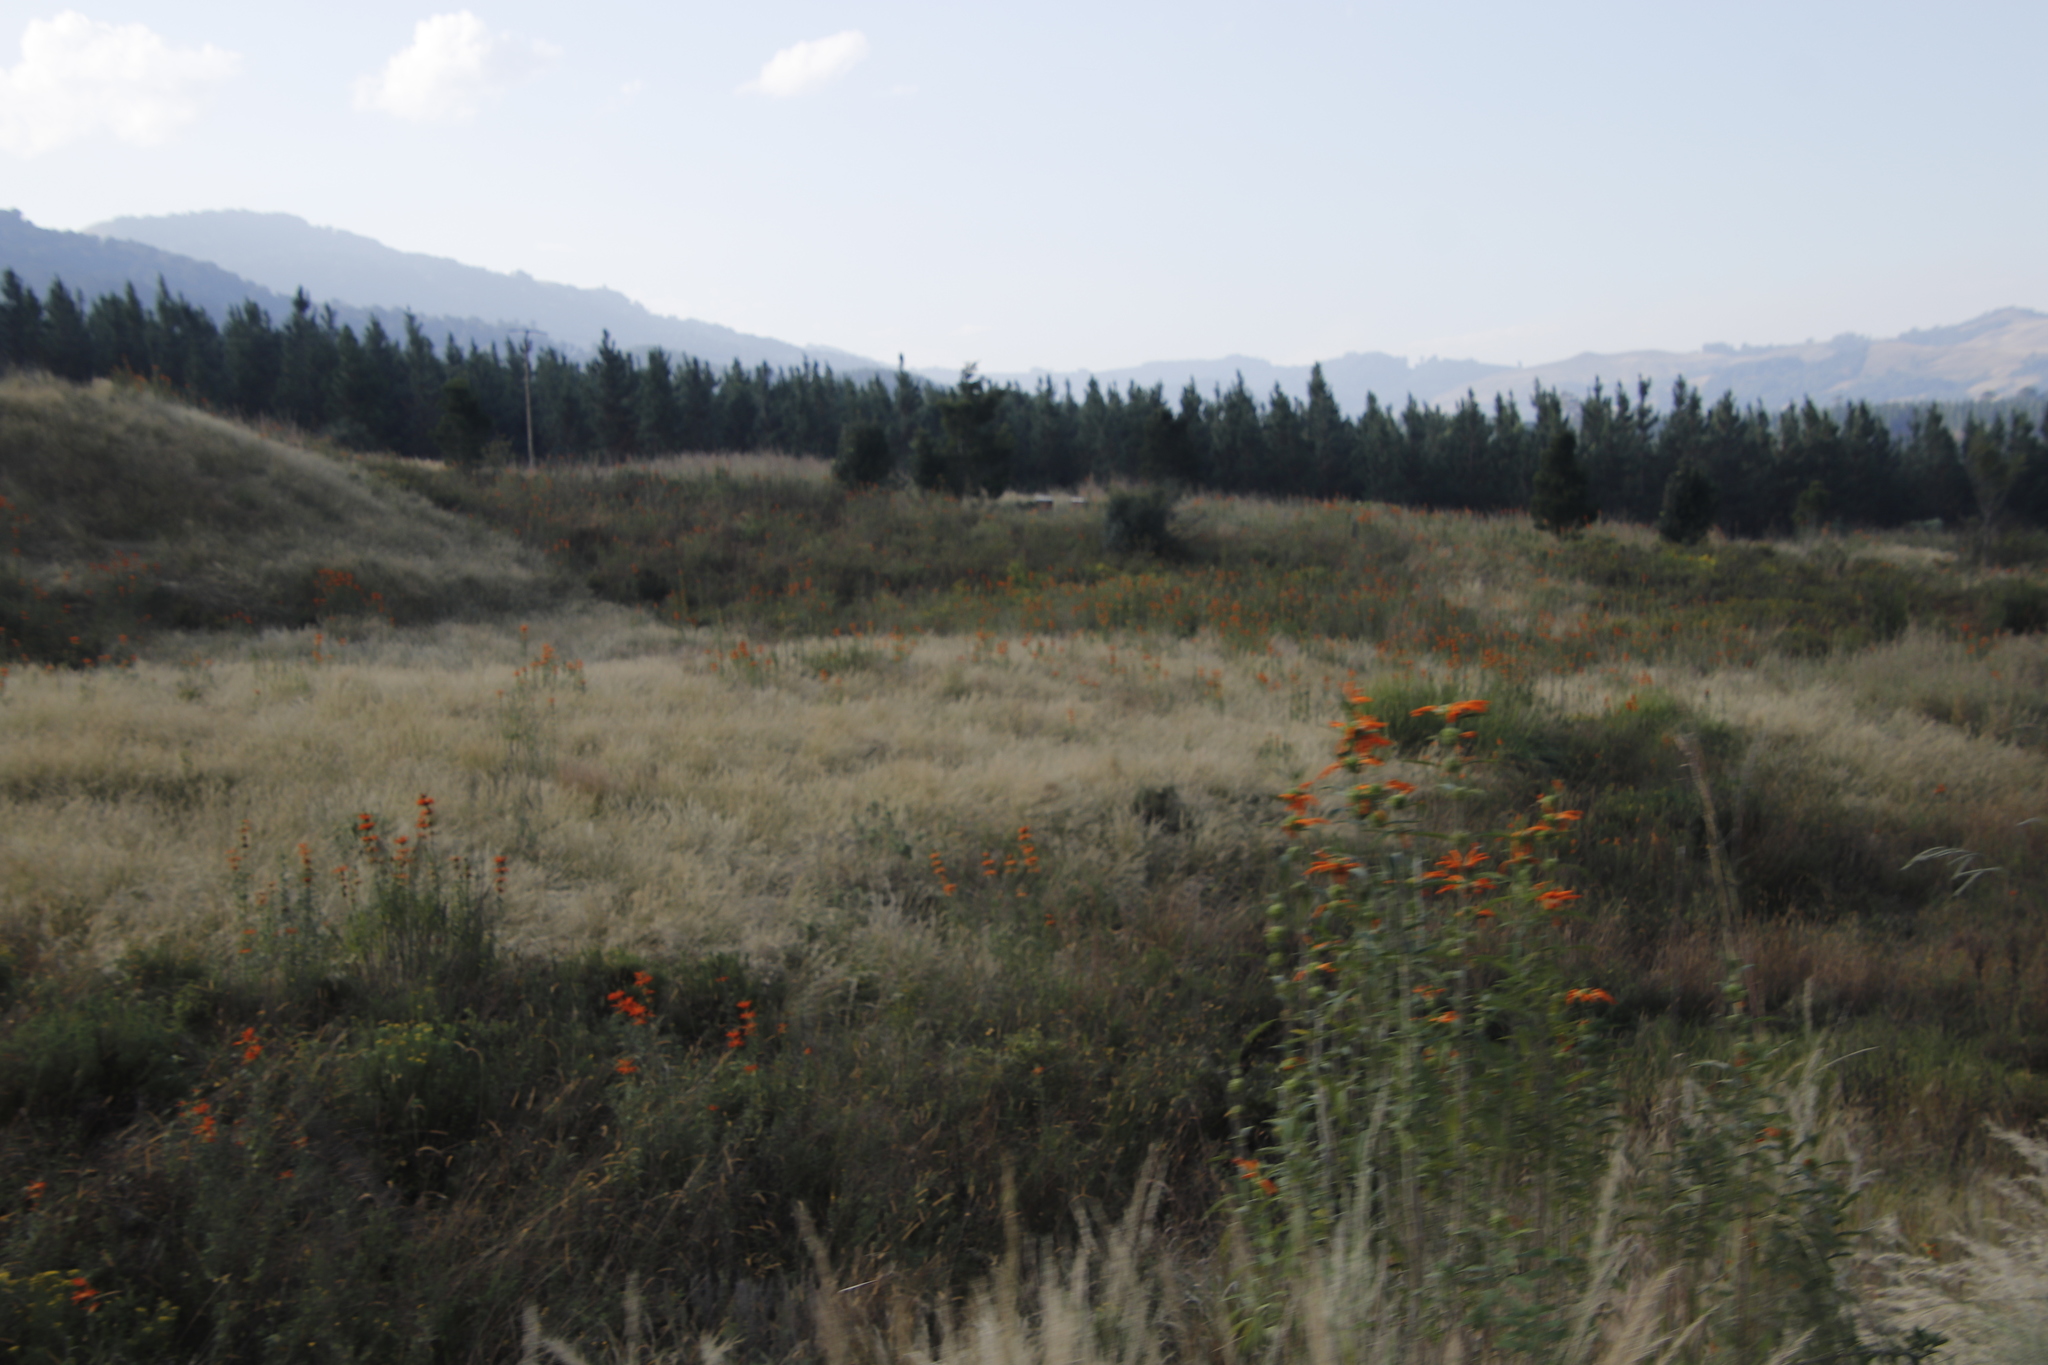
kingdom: Plantae
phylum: Tracheophyta
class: Magnoliopsida
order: Lamiales
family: Lamiaceae
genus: Leonotis
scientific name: Leonotis leonurus
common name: Lion's ear
